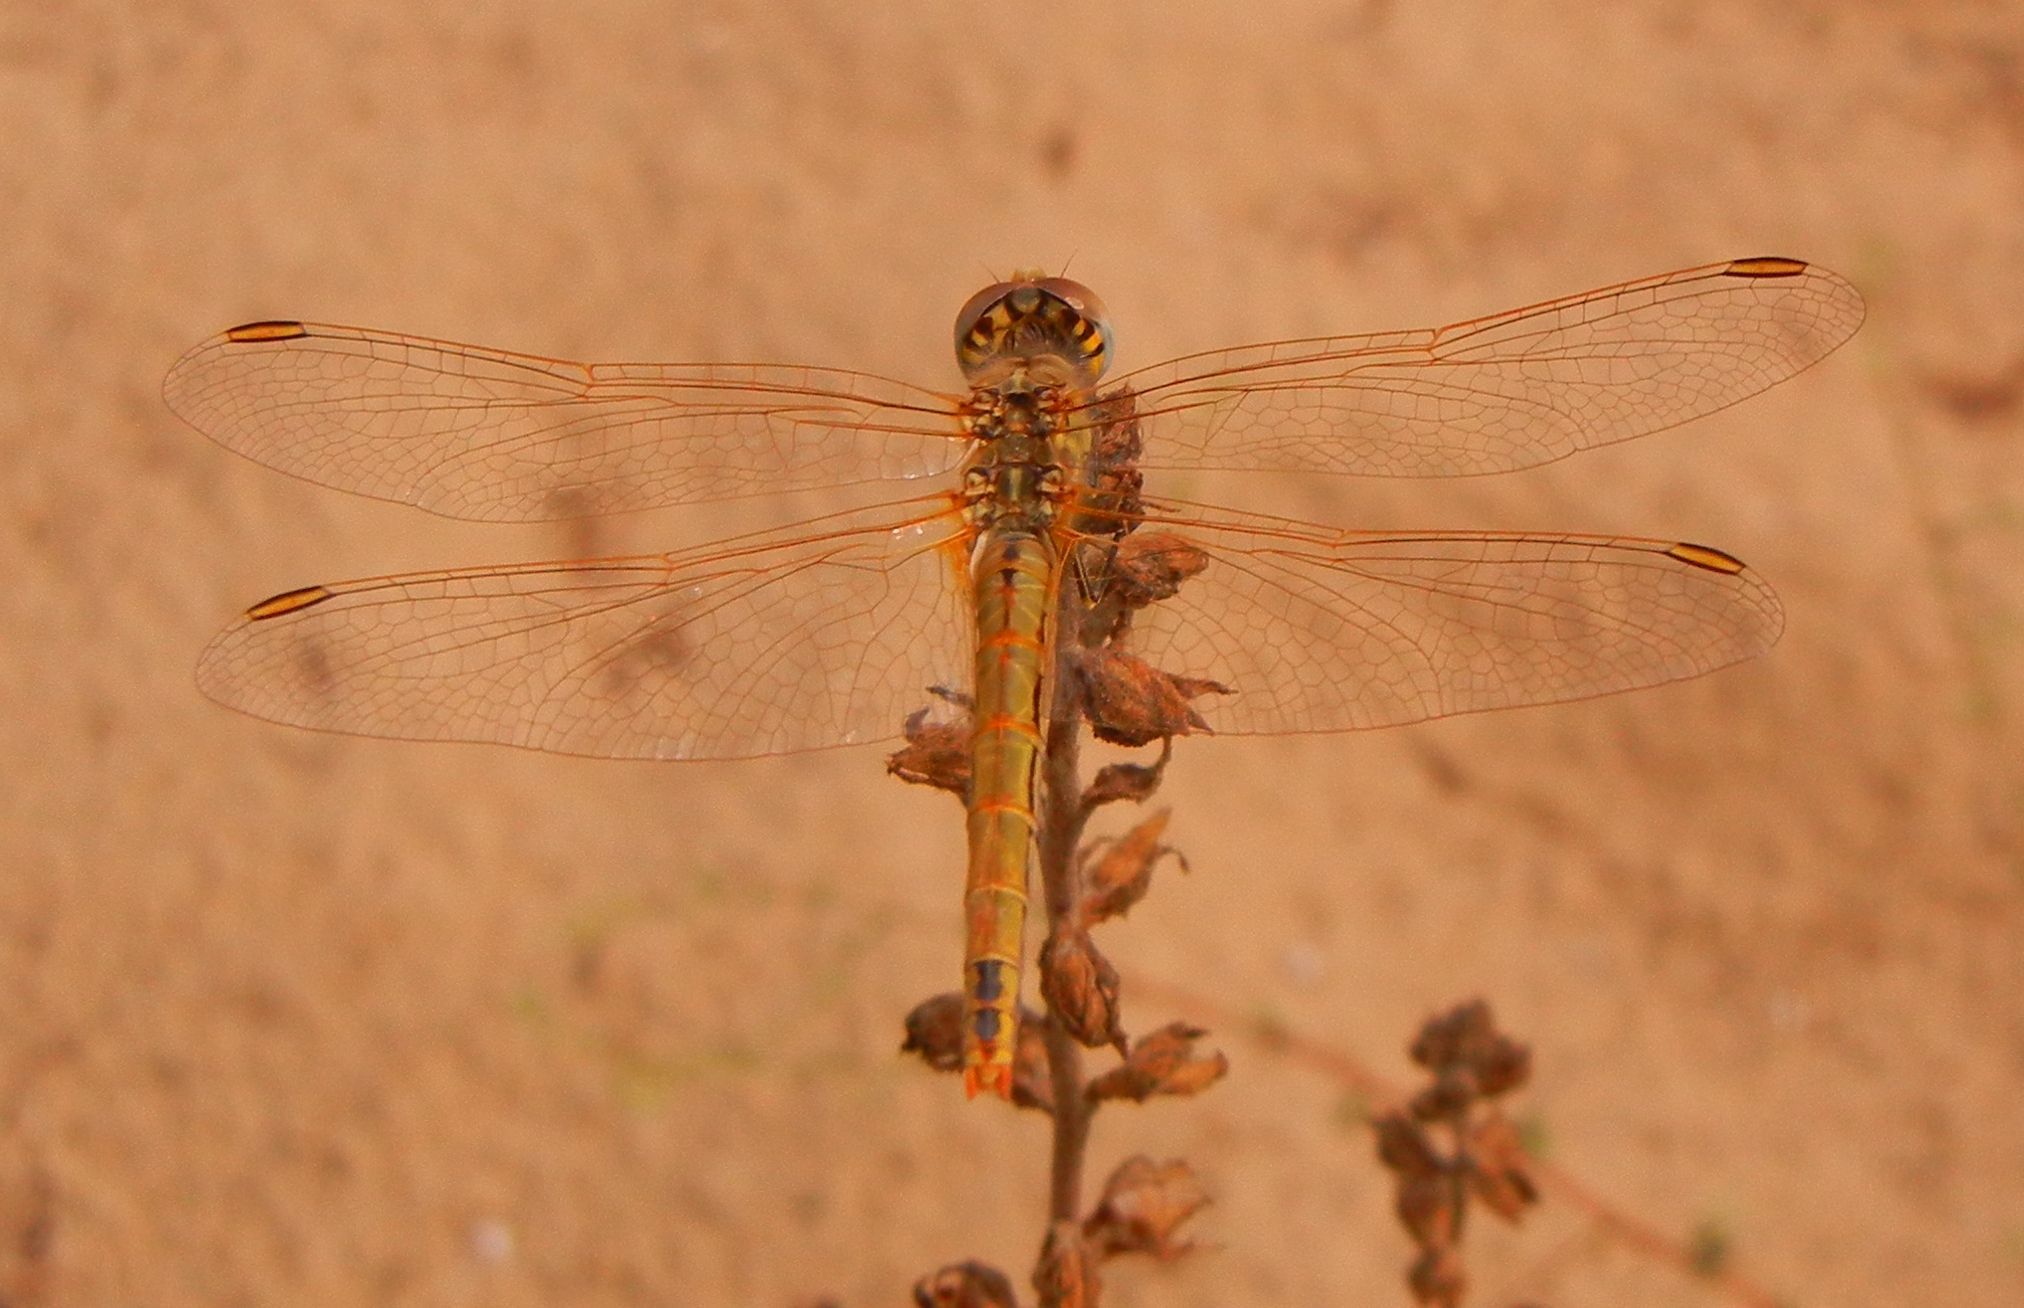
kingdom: Animalia
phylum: Arthropoda
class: Insecta
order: Odonata
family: Libellulidae
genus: Sympetrum
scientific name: Sympetrum fonscolombii
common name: Red-veined darter
